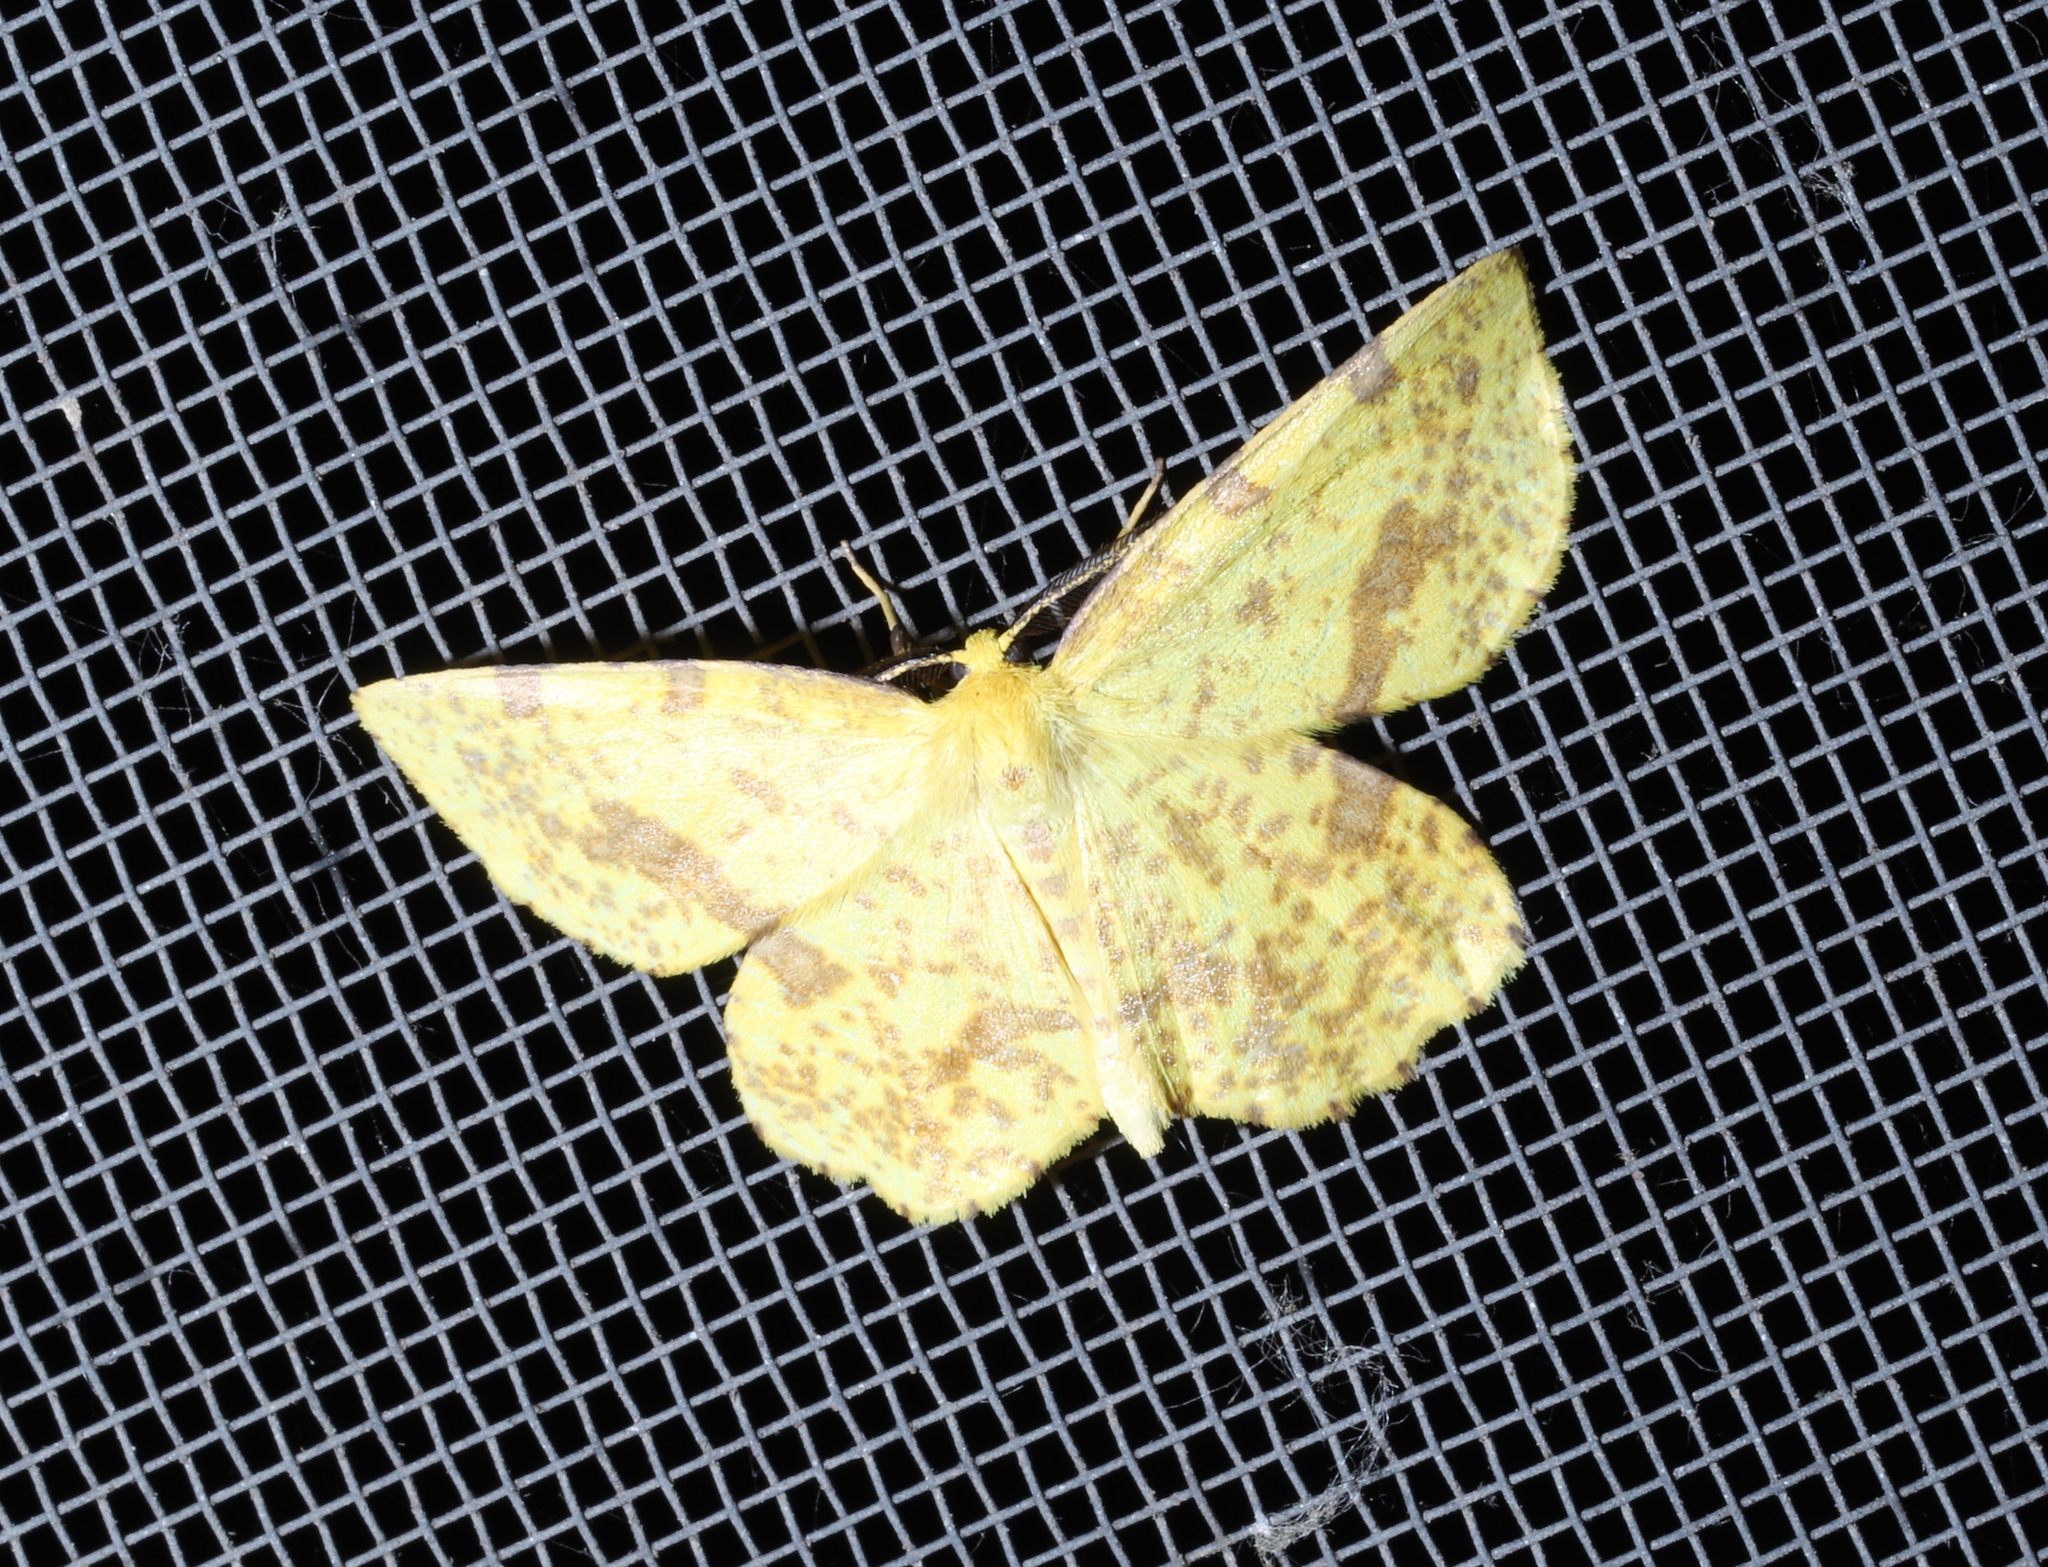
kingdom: Animalia
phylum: Arthropoda
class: Insecta
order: Lepidoptera
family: Geometridae
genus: Xanthotype
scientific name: Xanthotype
